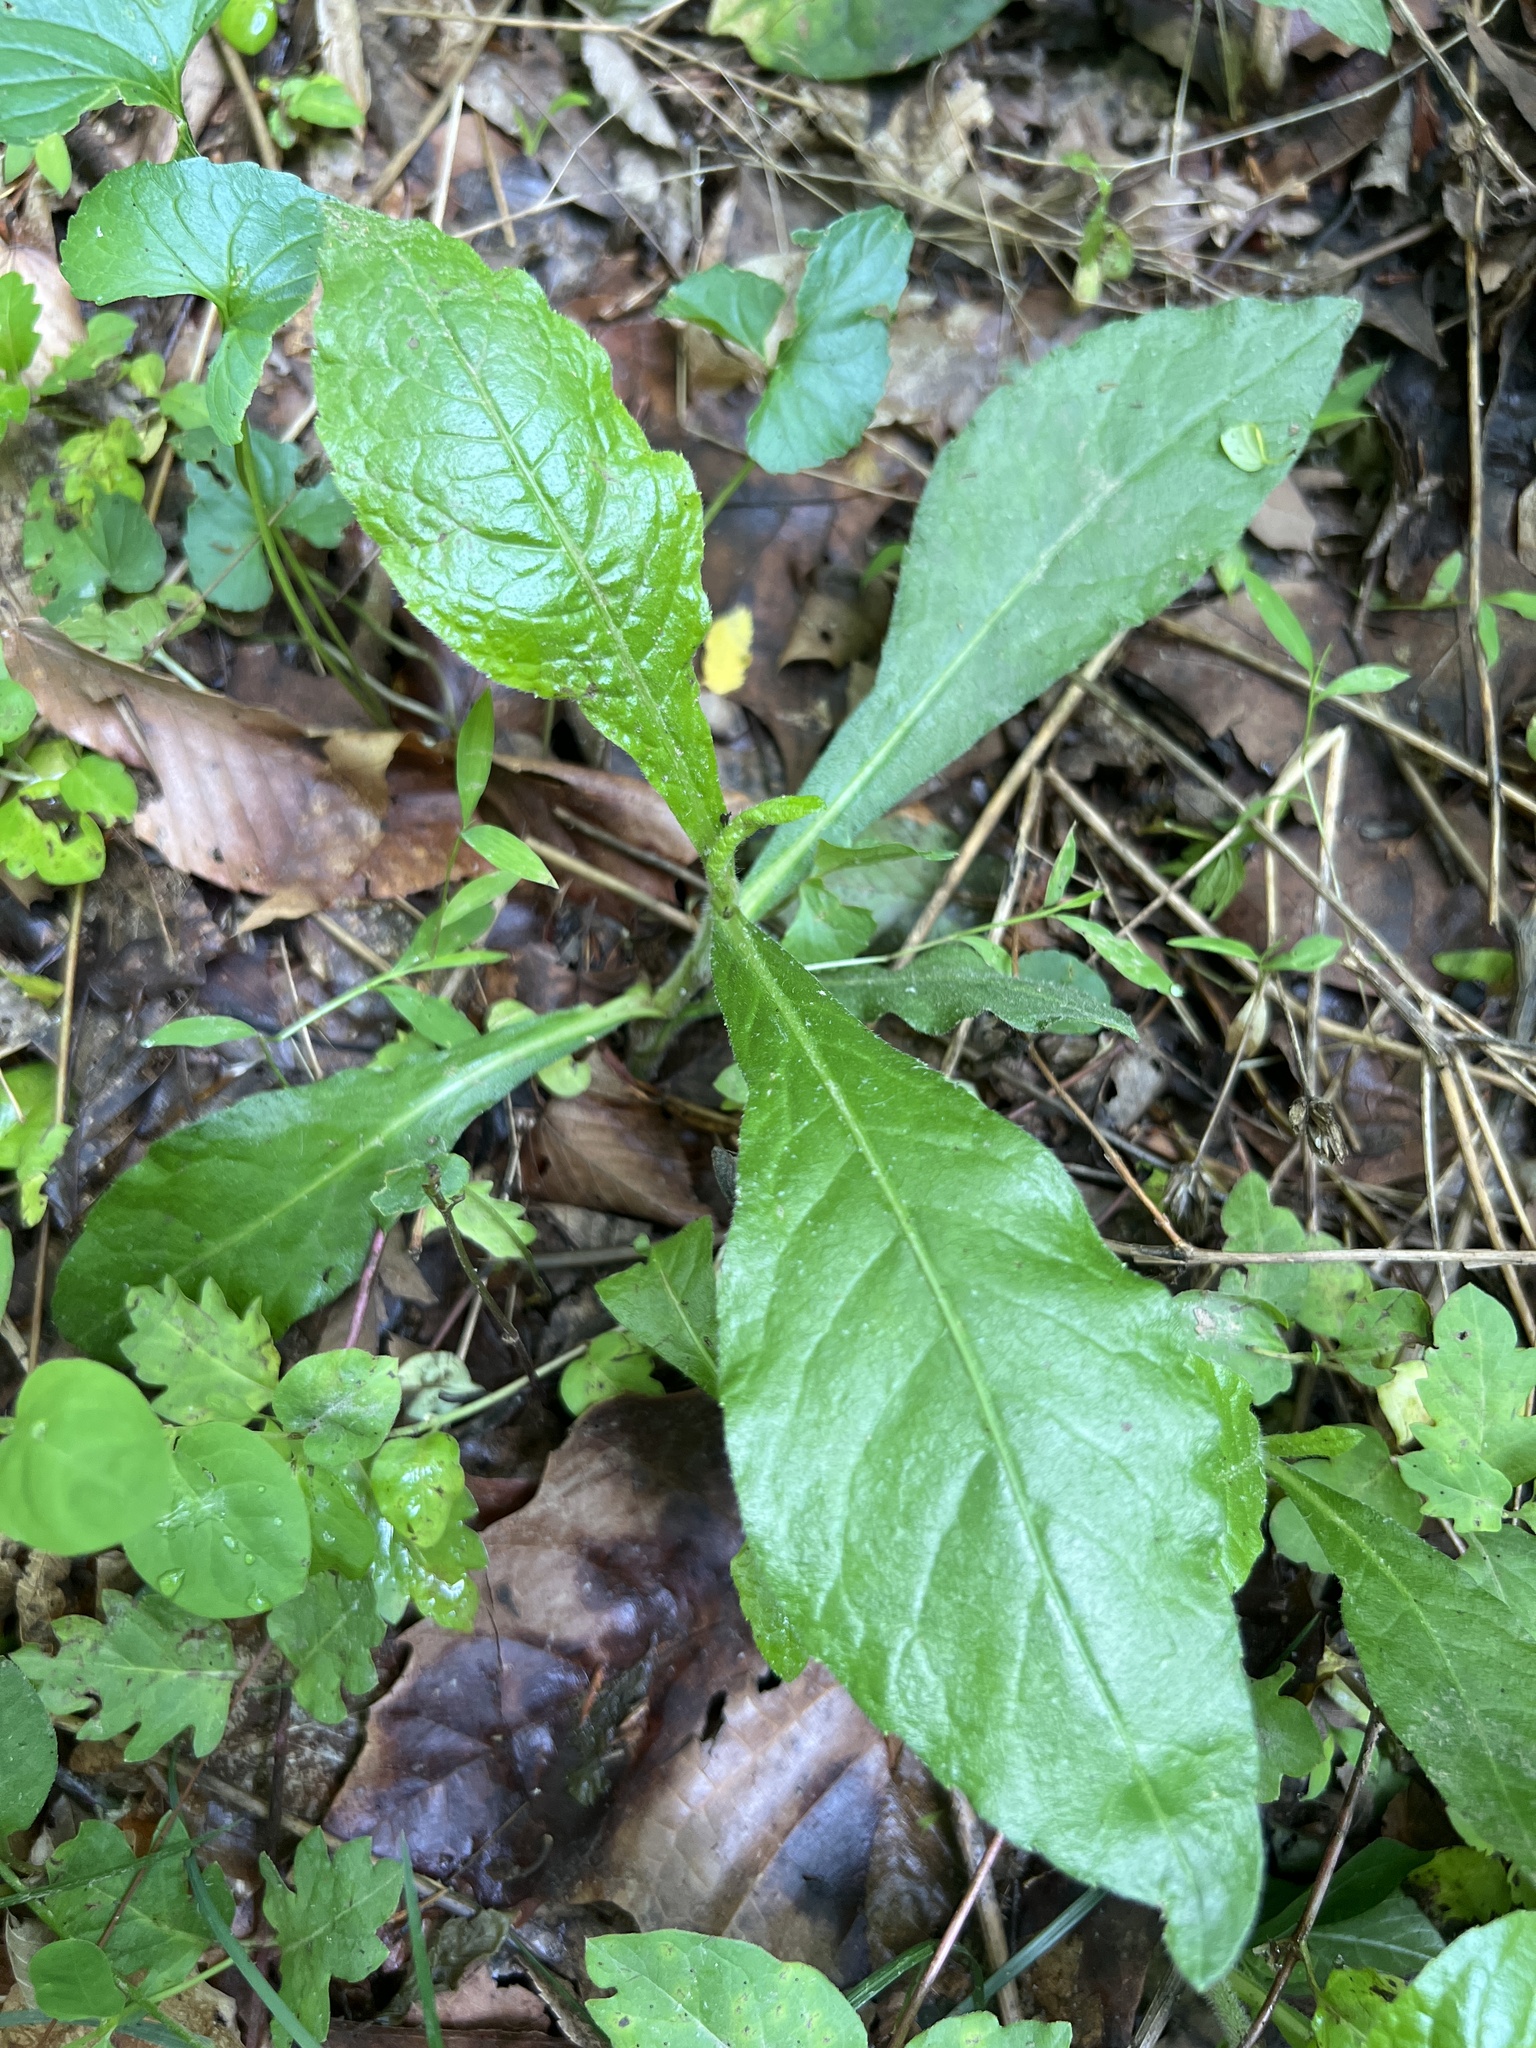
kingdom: Plantae
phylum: Tracheophyta
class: Magnoliopsida
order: Asterales
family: Asteraceae
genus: Elephantopus
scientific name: Elephantopus carolinianus
